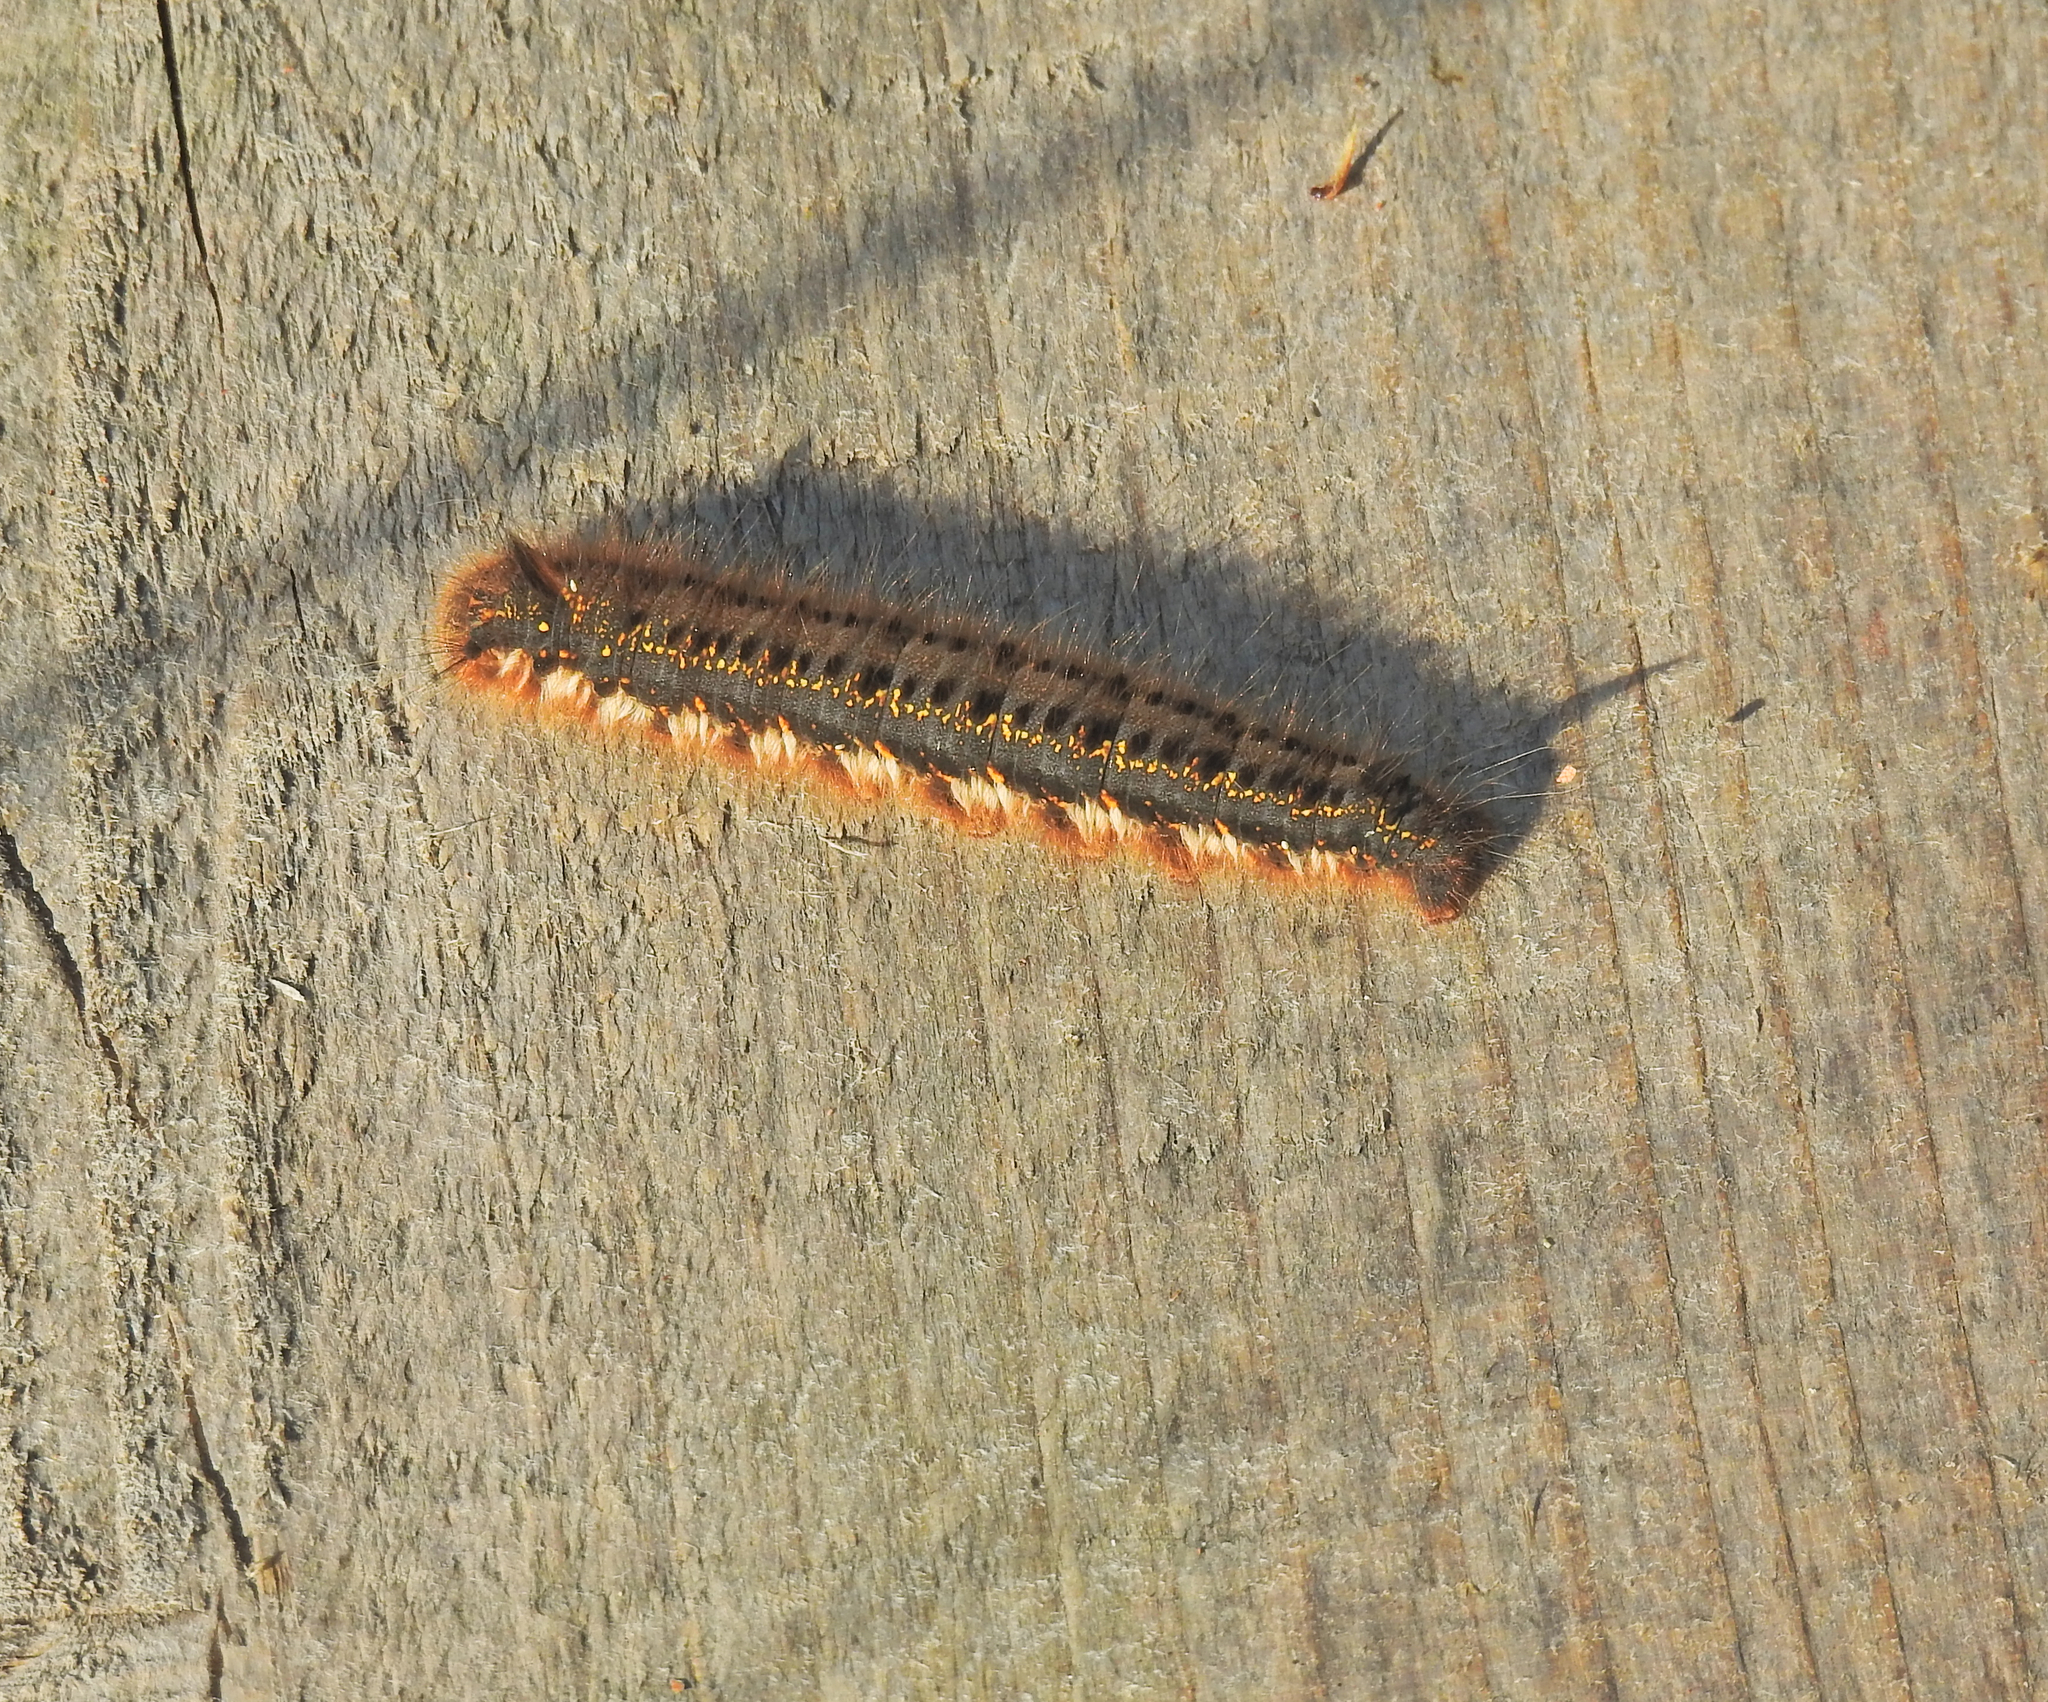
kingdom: Animalia
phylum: Arthropoda
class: Insecta
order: Lepidoptera
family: Lasiocampidae
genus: Euthrix
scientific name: Euthrix potatoria
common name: Drinker
